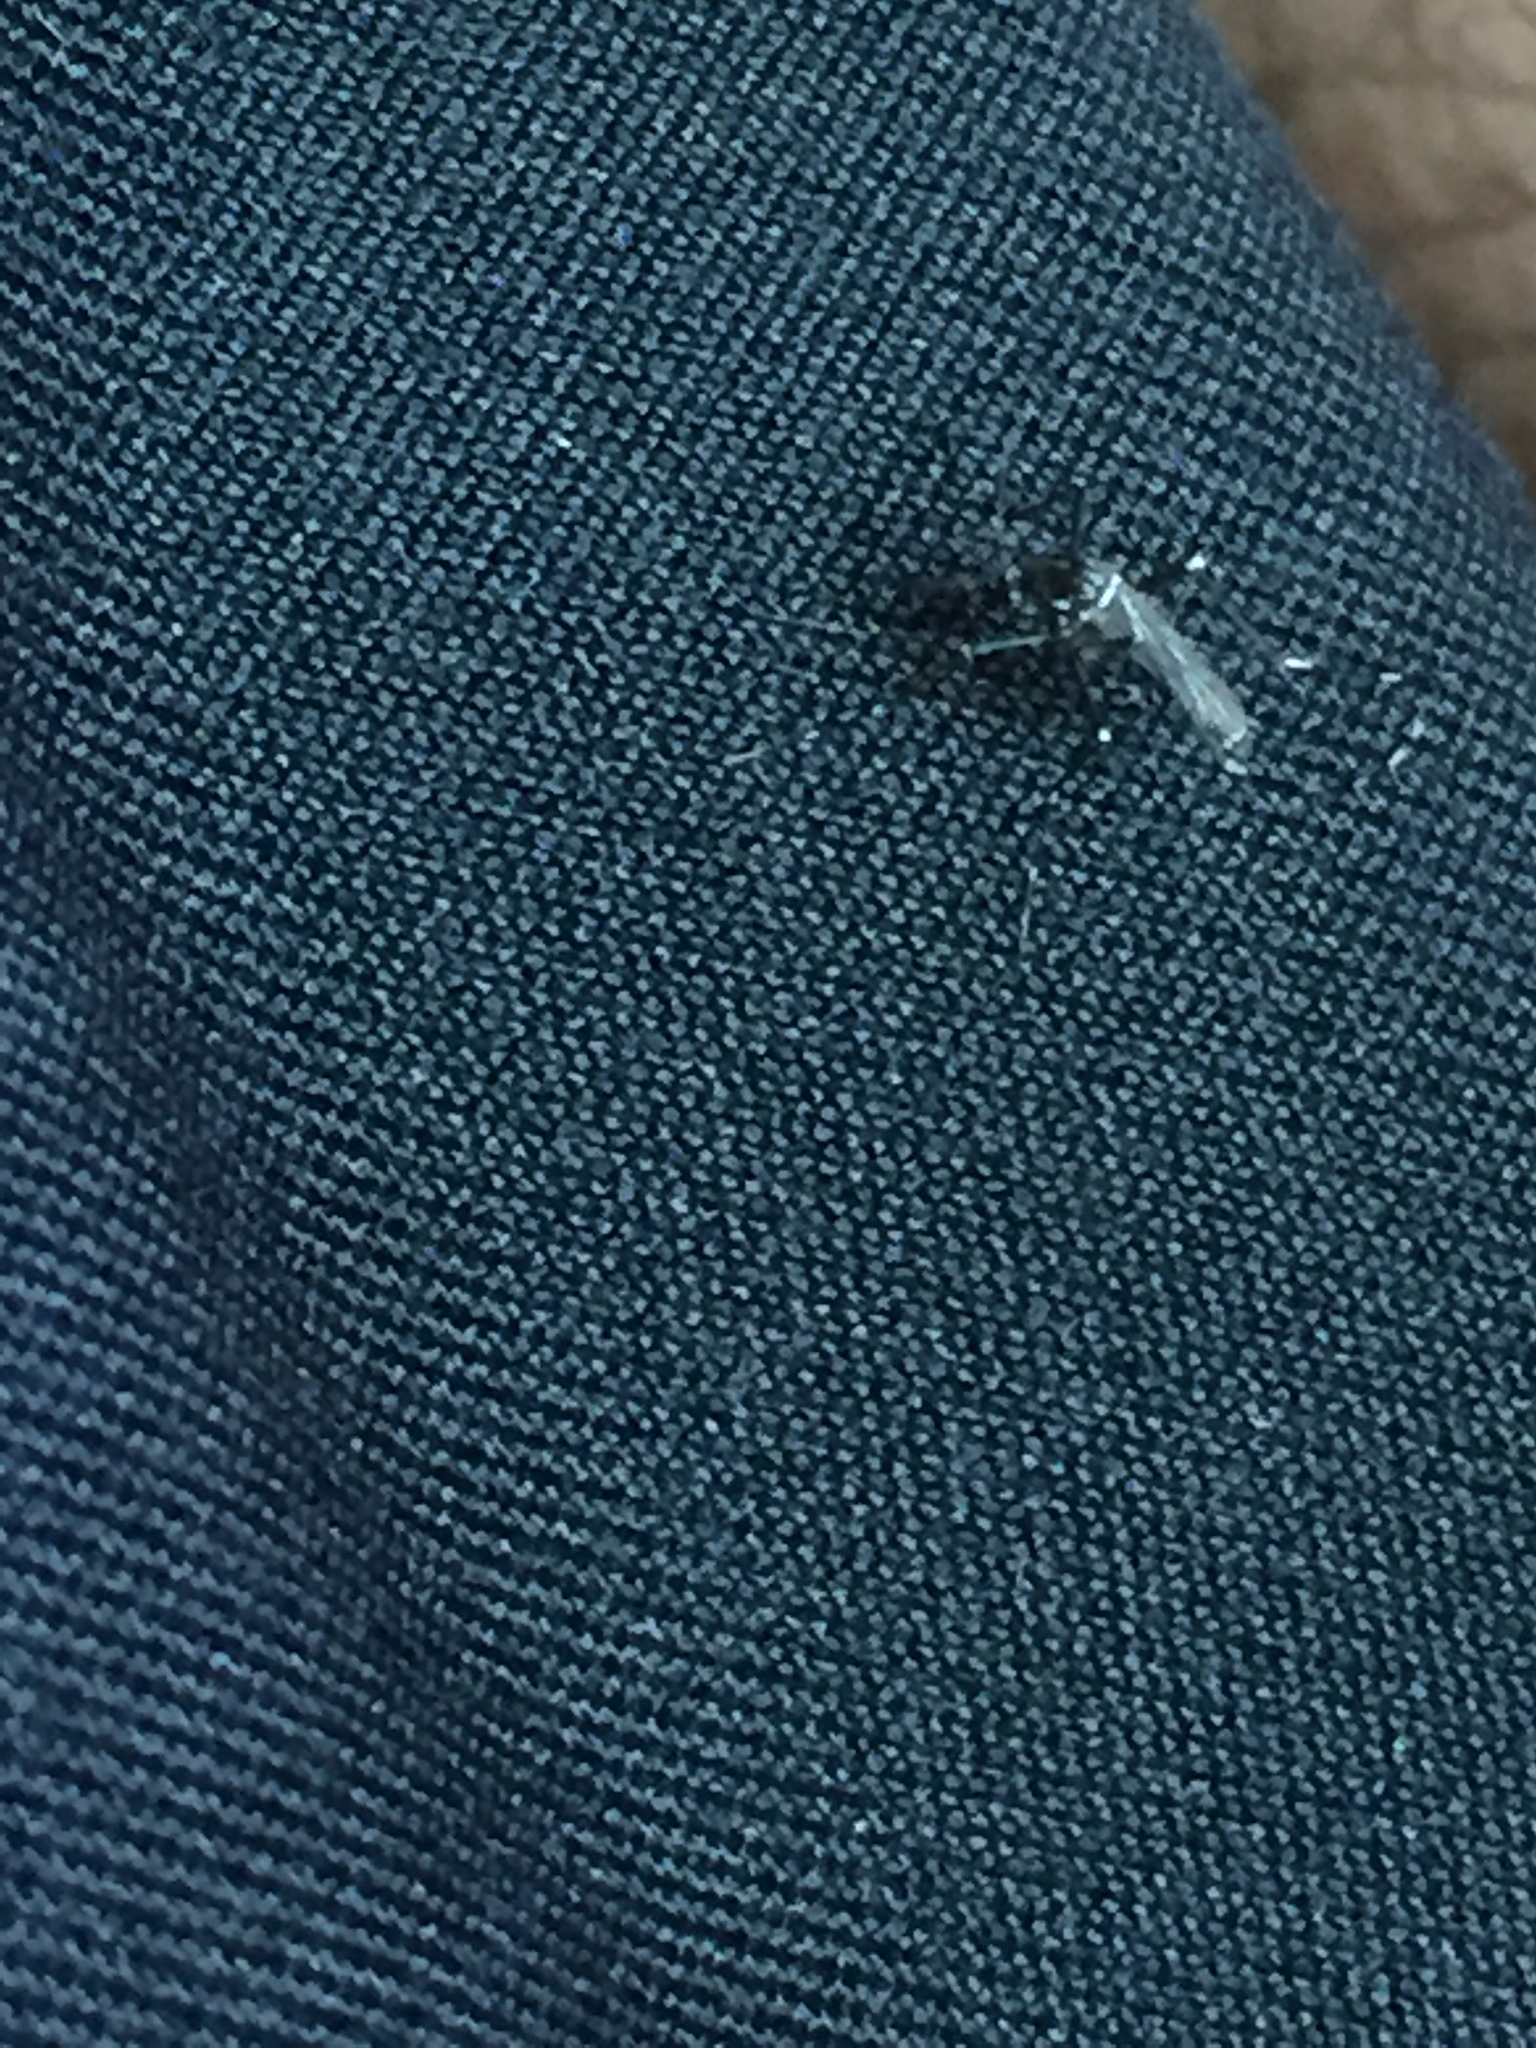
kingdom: Animalia
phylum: Arthropoda
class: Insecta
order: Diptera
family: Culicidae
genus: Aedes
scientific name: Aedes albopictus
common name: Tiger mosquito
